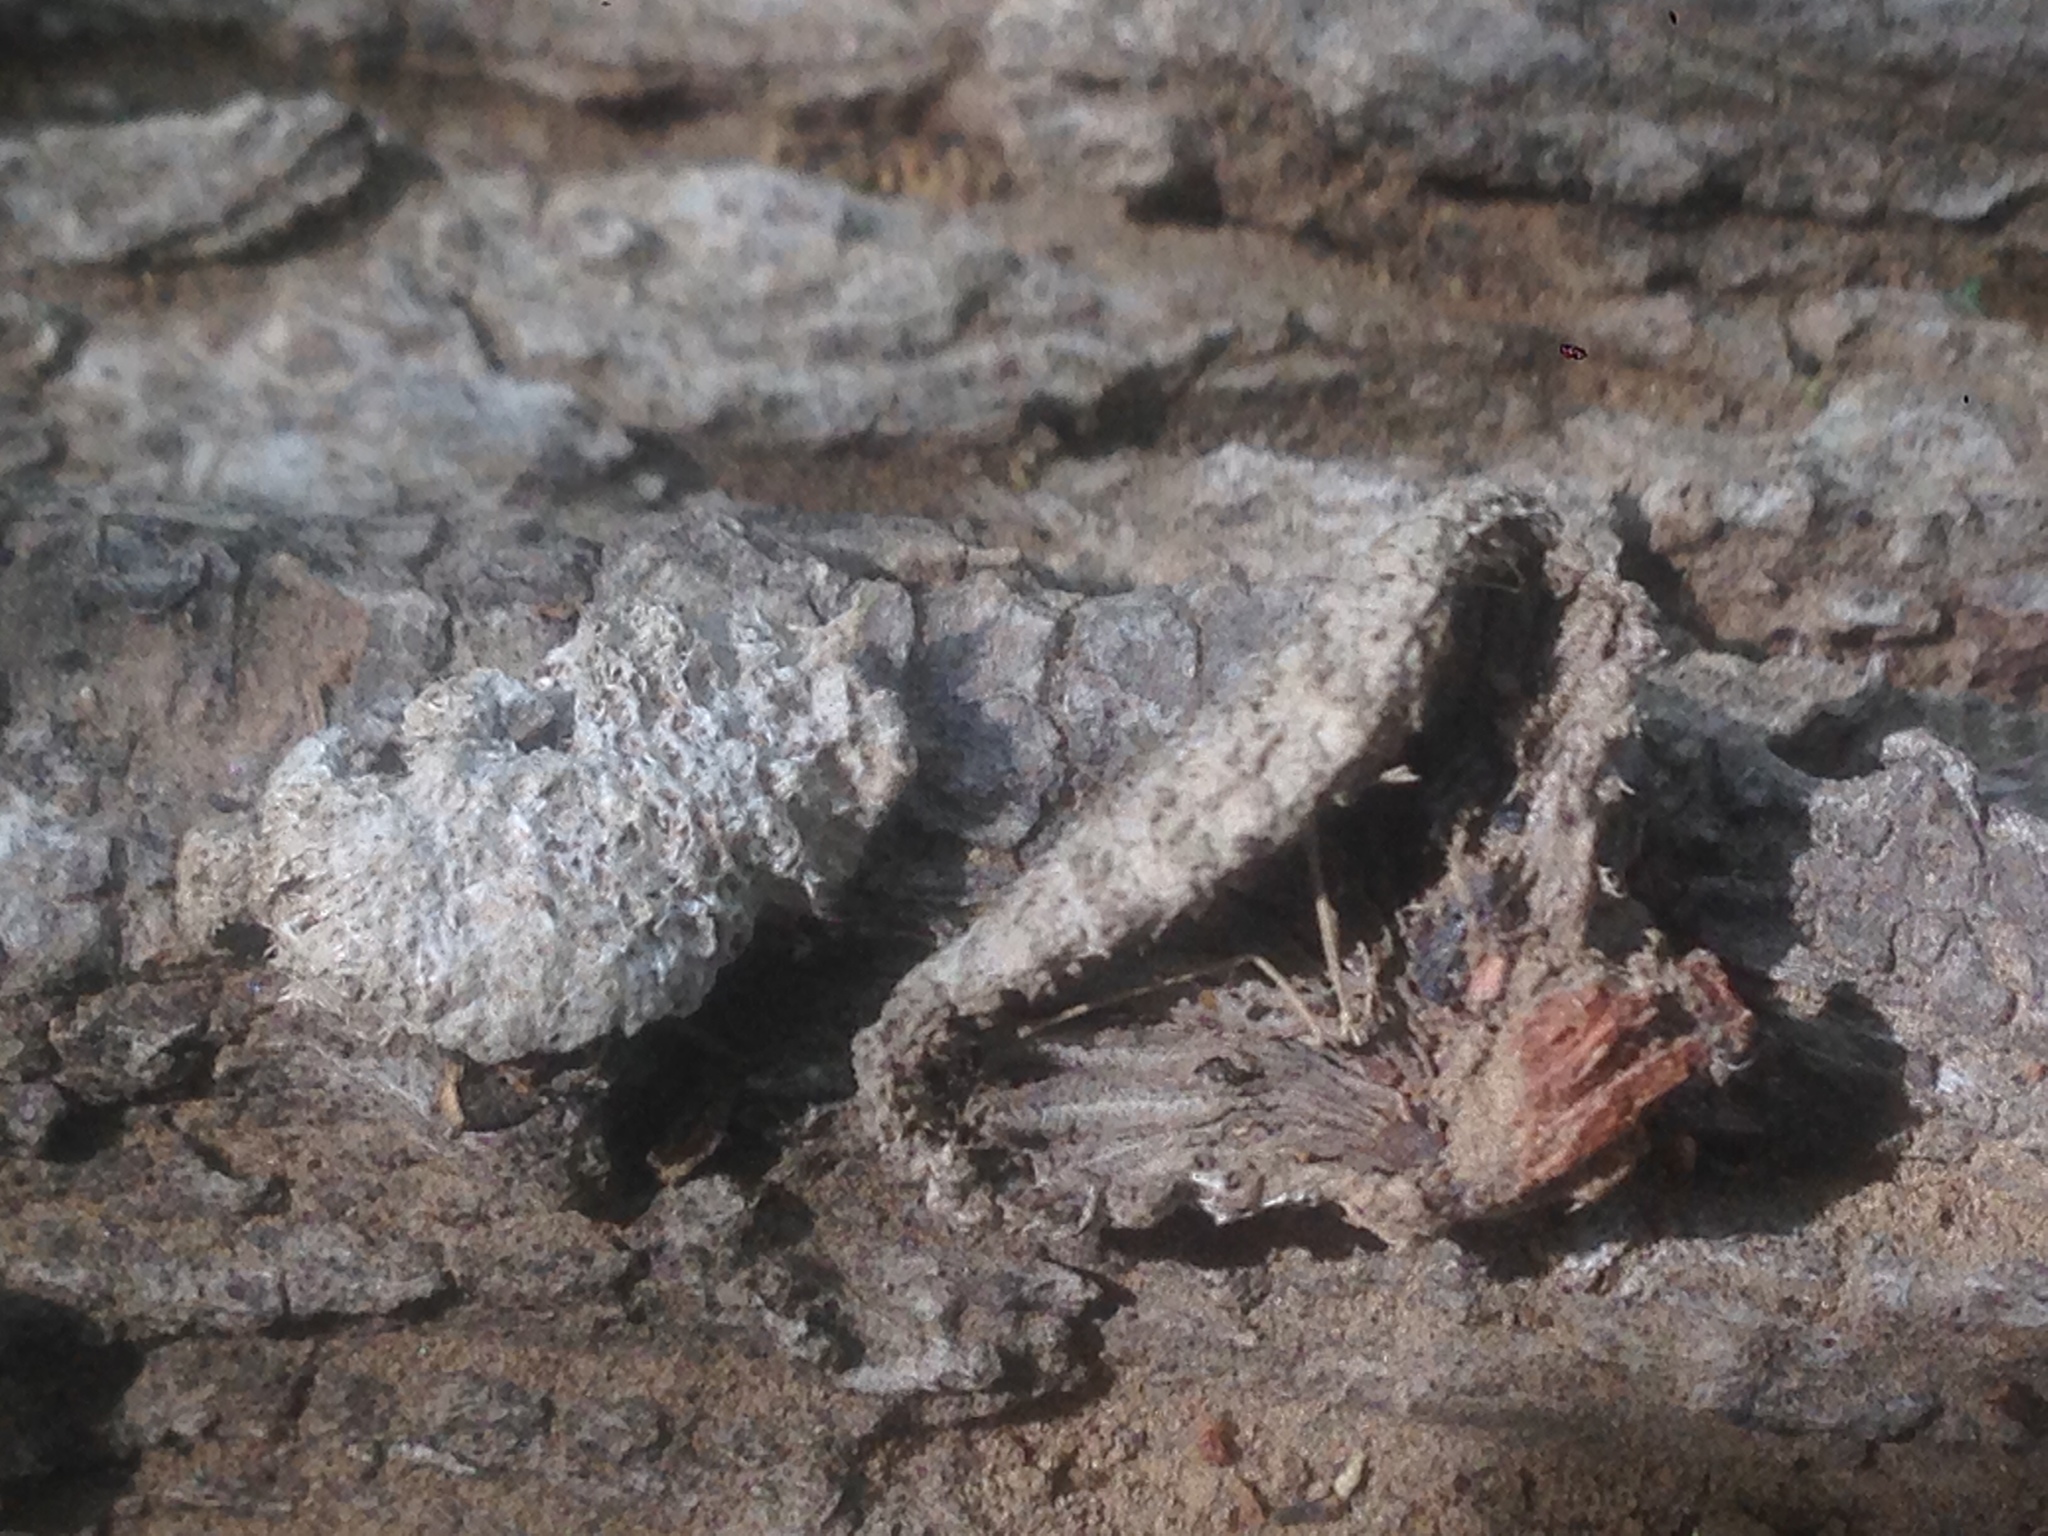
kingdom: Fungi
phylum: Basidiomycota
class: Agaricomycetes
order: Agaricales
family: Schizophyllaceae
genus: Schizophyllum
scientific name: Schizophyllum commune
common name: Common porecrust
